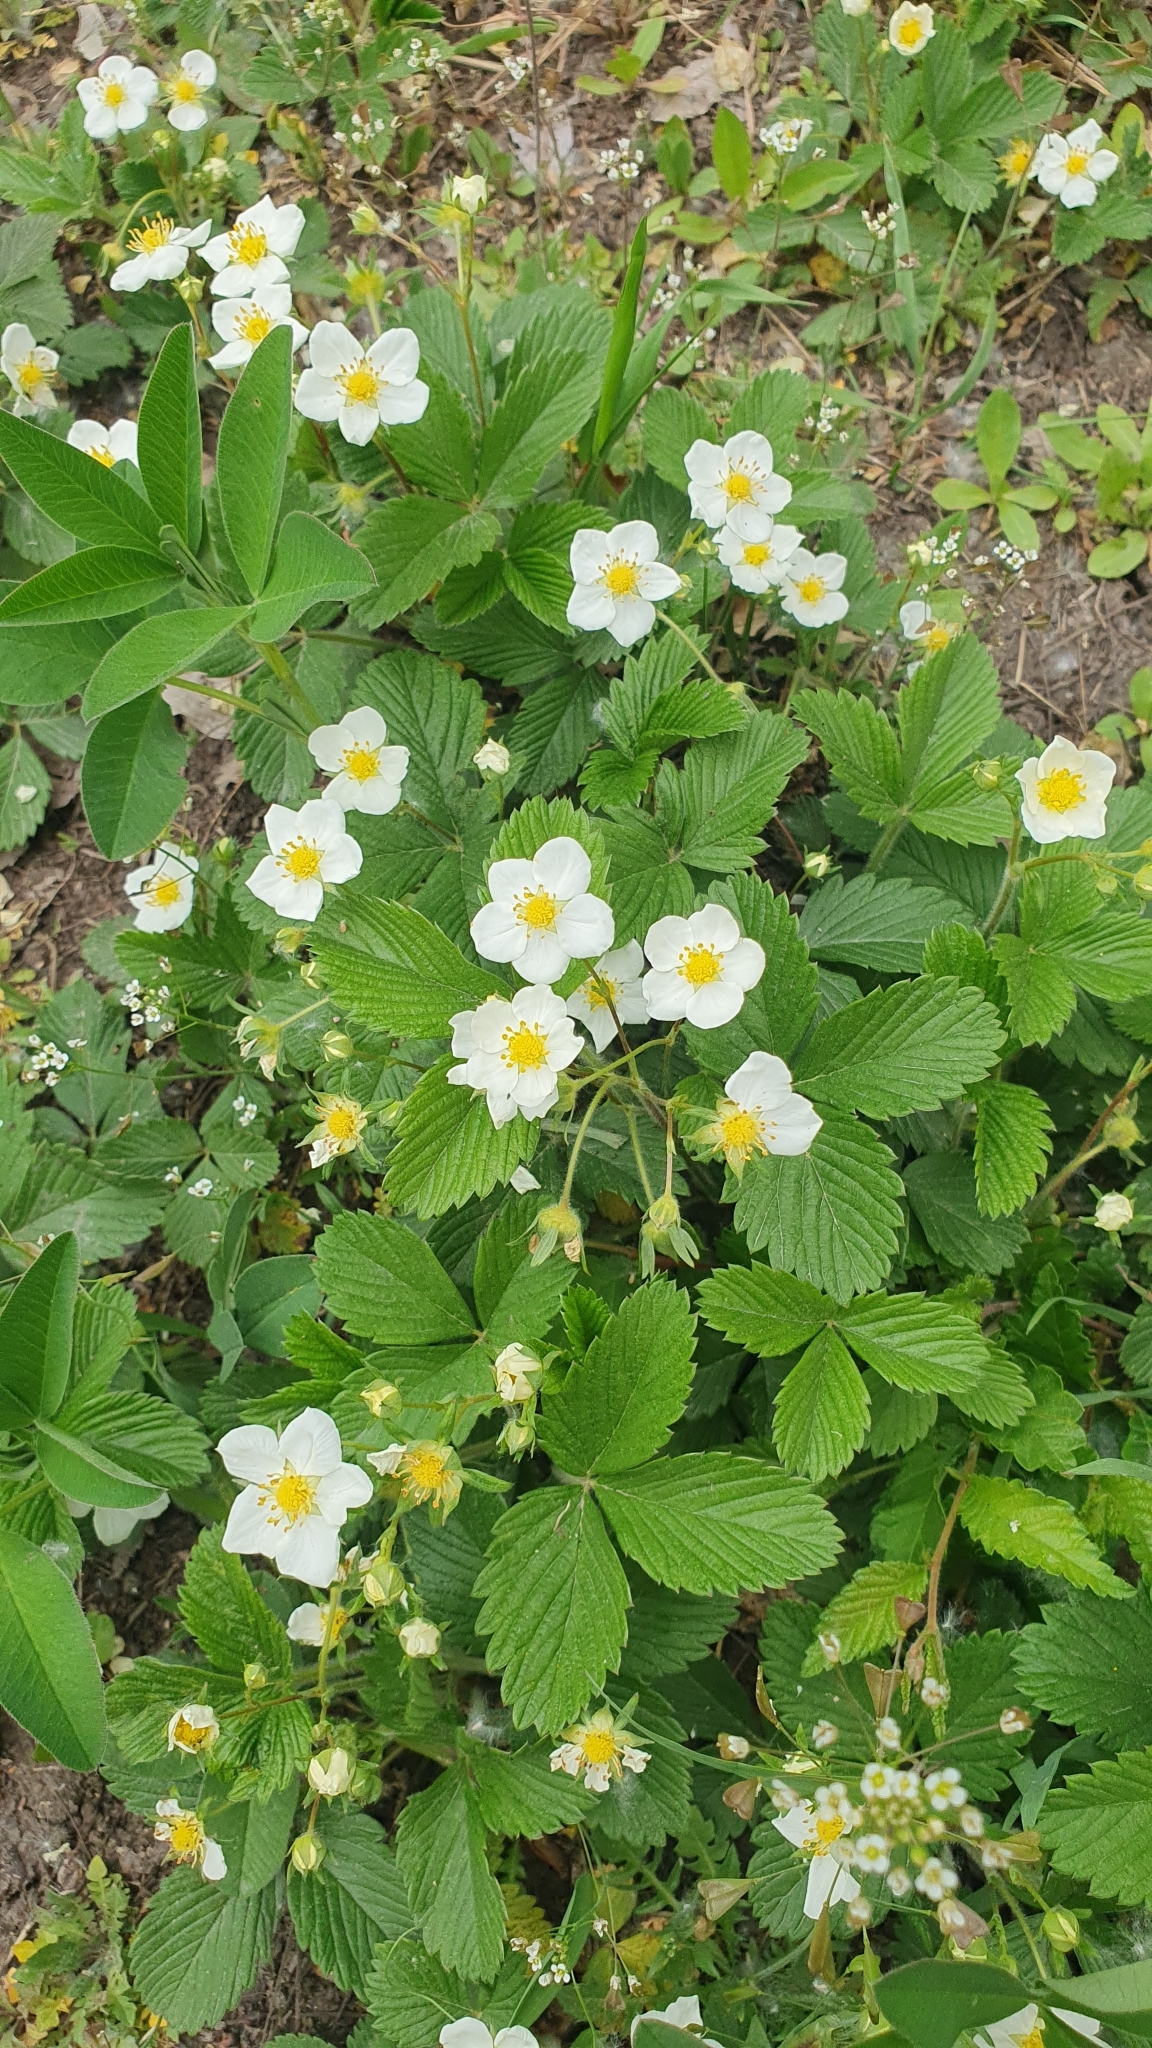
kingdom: Plantae
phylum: Tracheophyta
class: Magnoliopsida
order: Rosales
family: Rosaceae
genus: Fragaria
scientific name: Fragaria viridis
